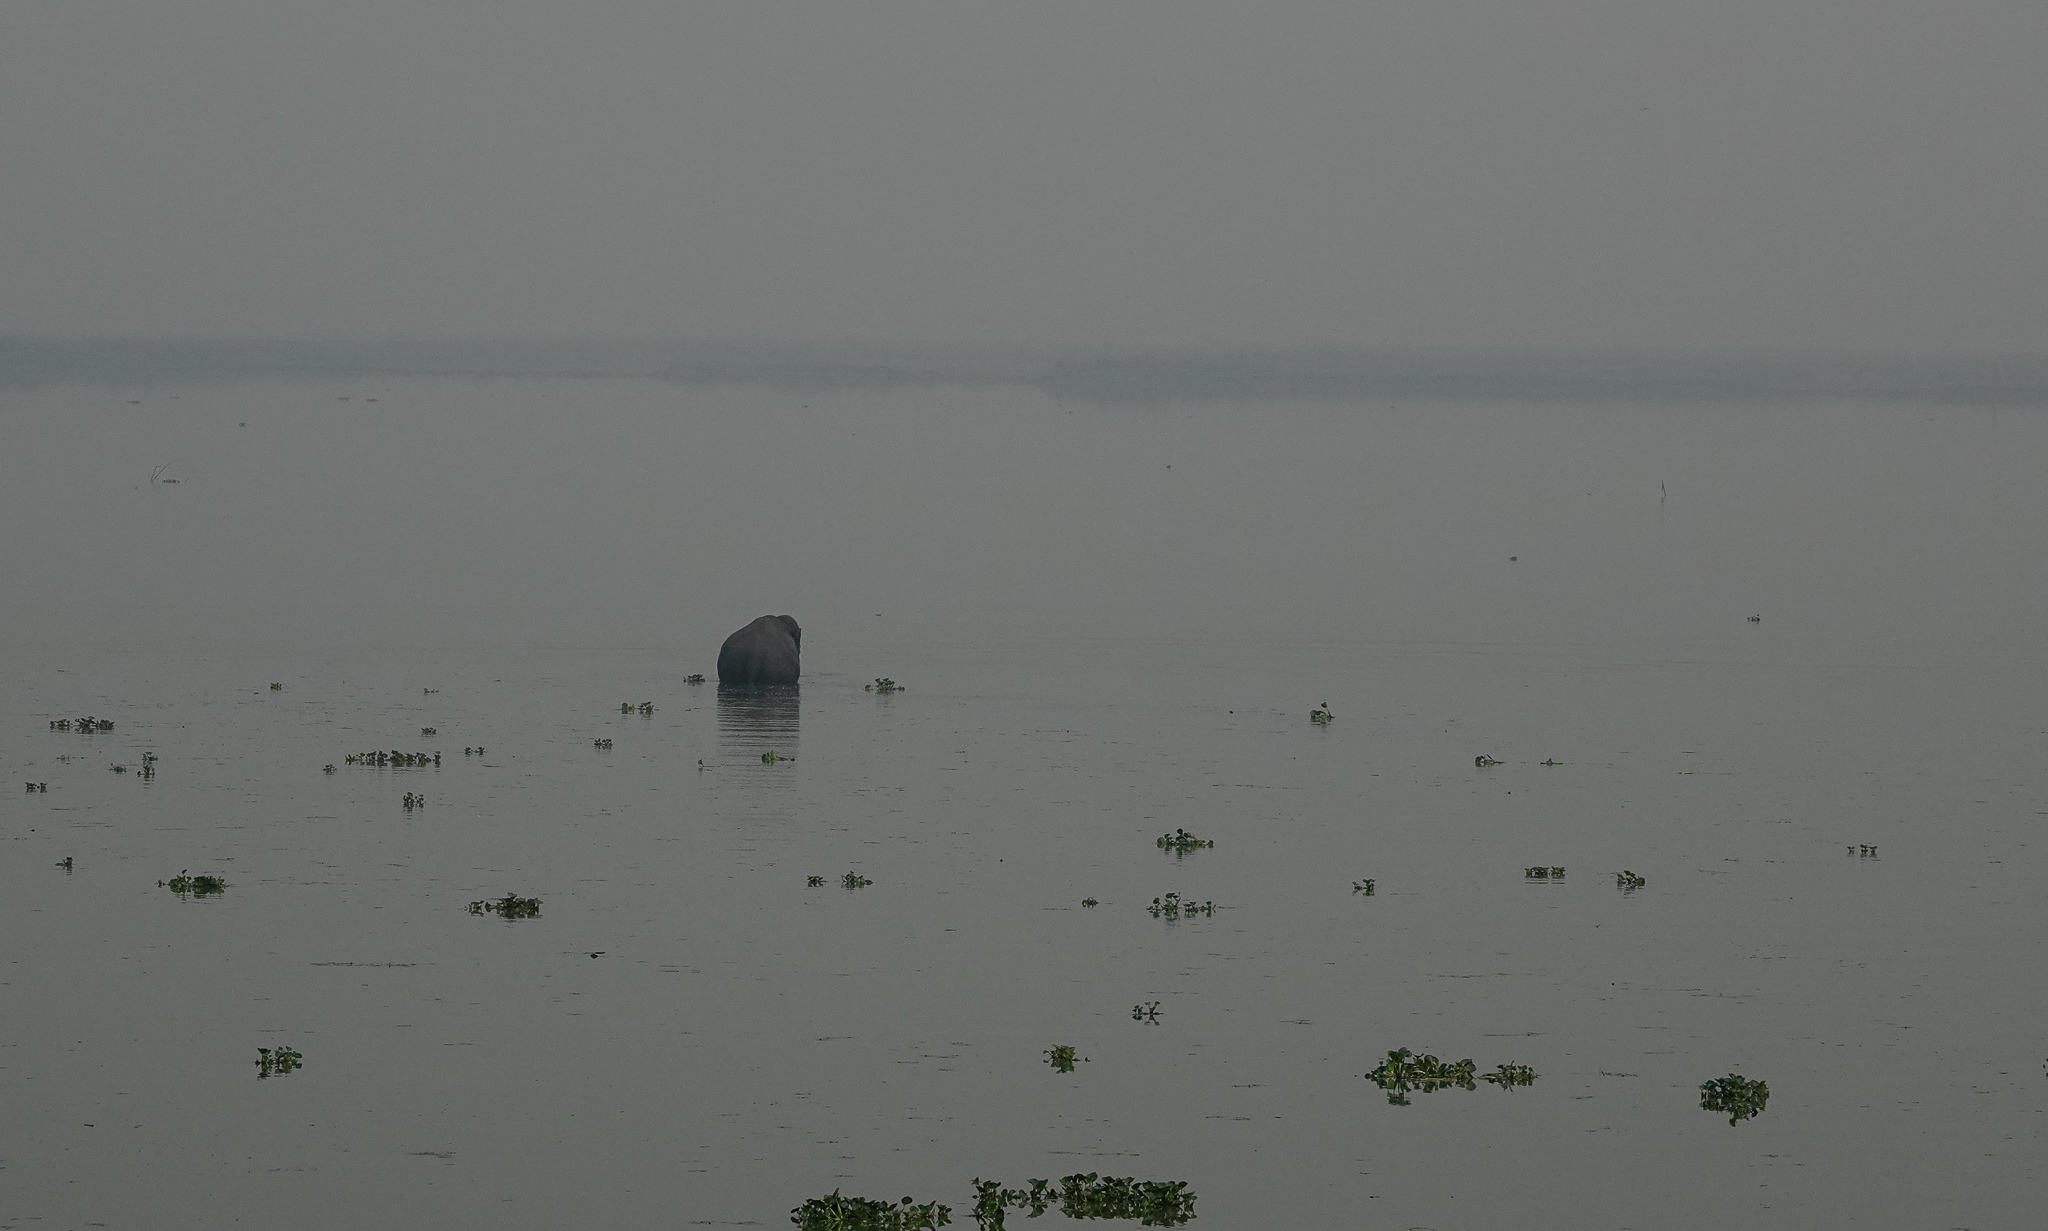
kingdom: Animalia
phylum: Chordata
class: Mammalia
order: Proboscidea
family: Elephantidae
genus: Elephas
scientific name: Elephas maximus
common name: Asian elephant
